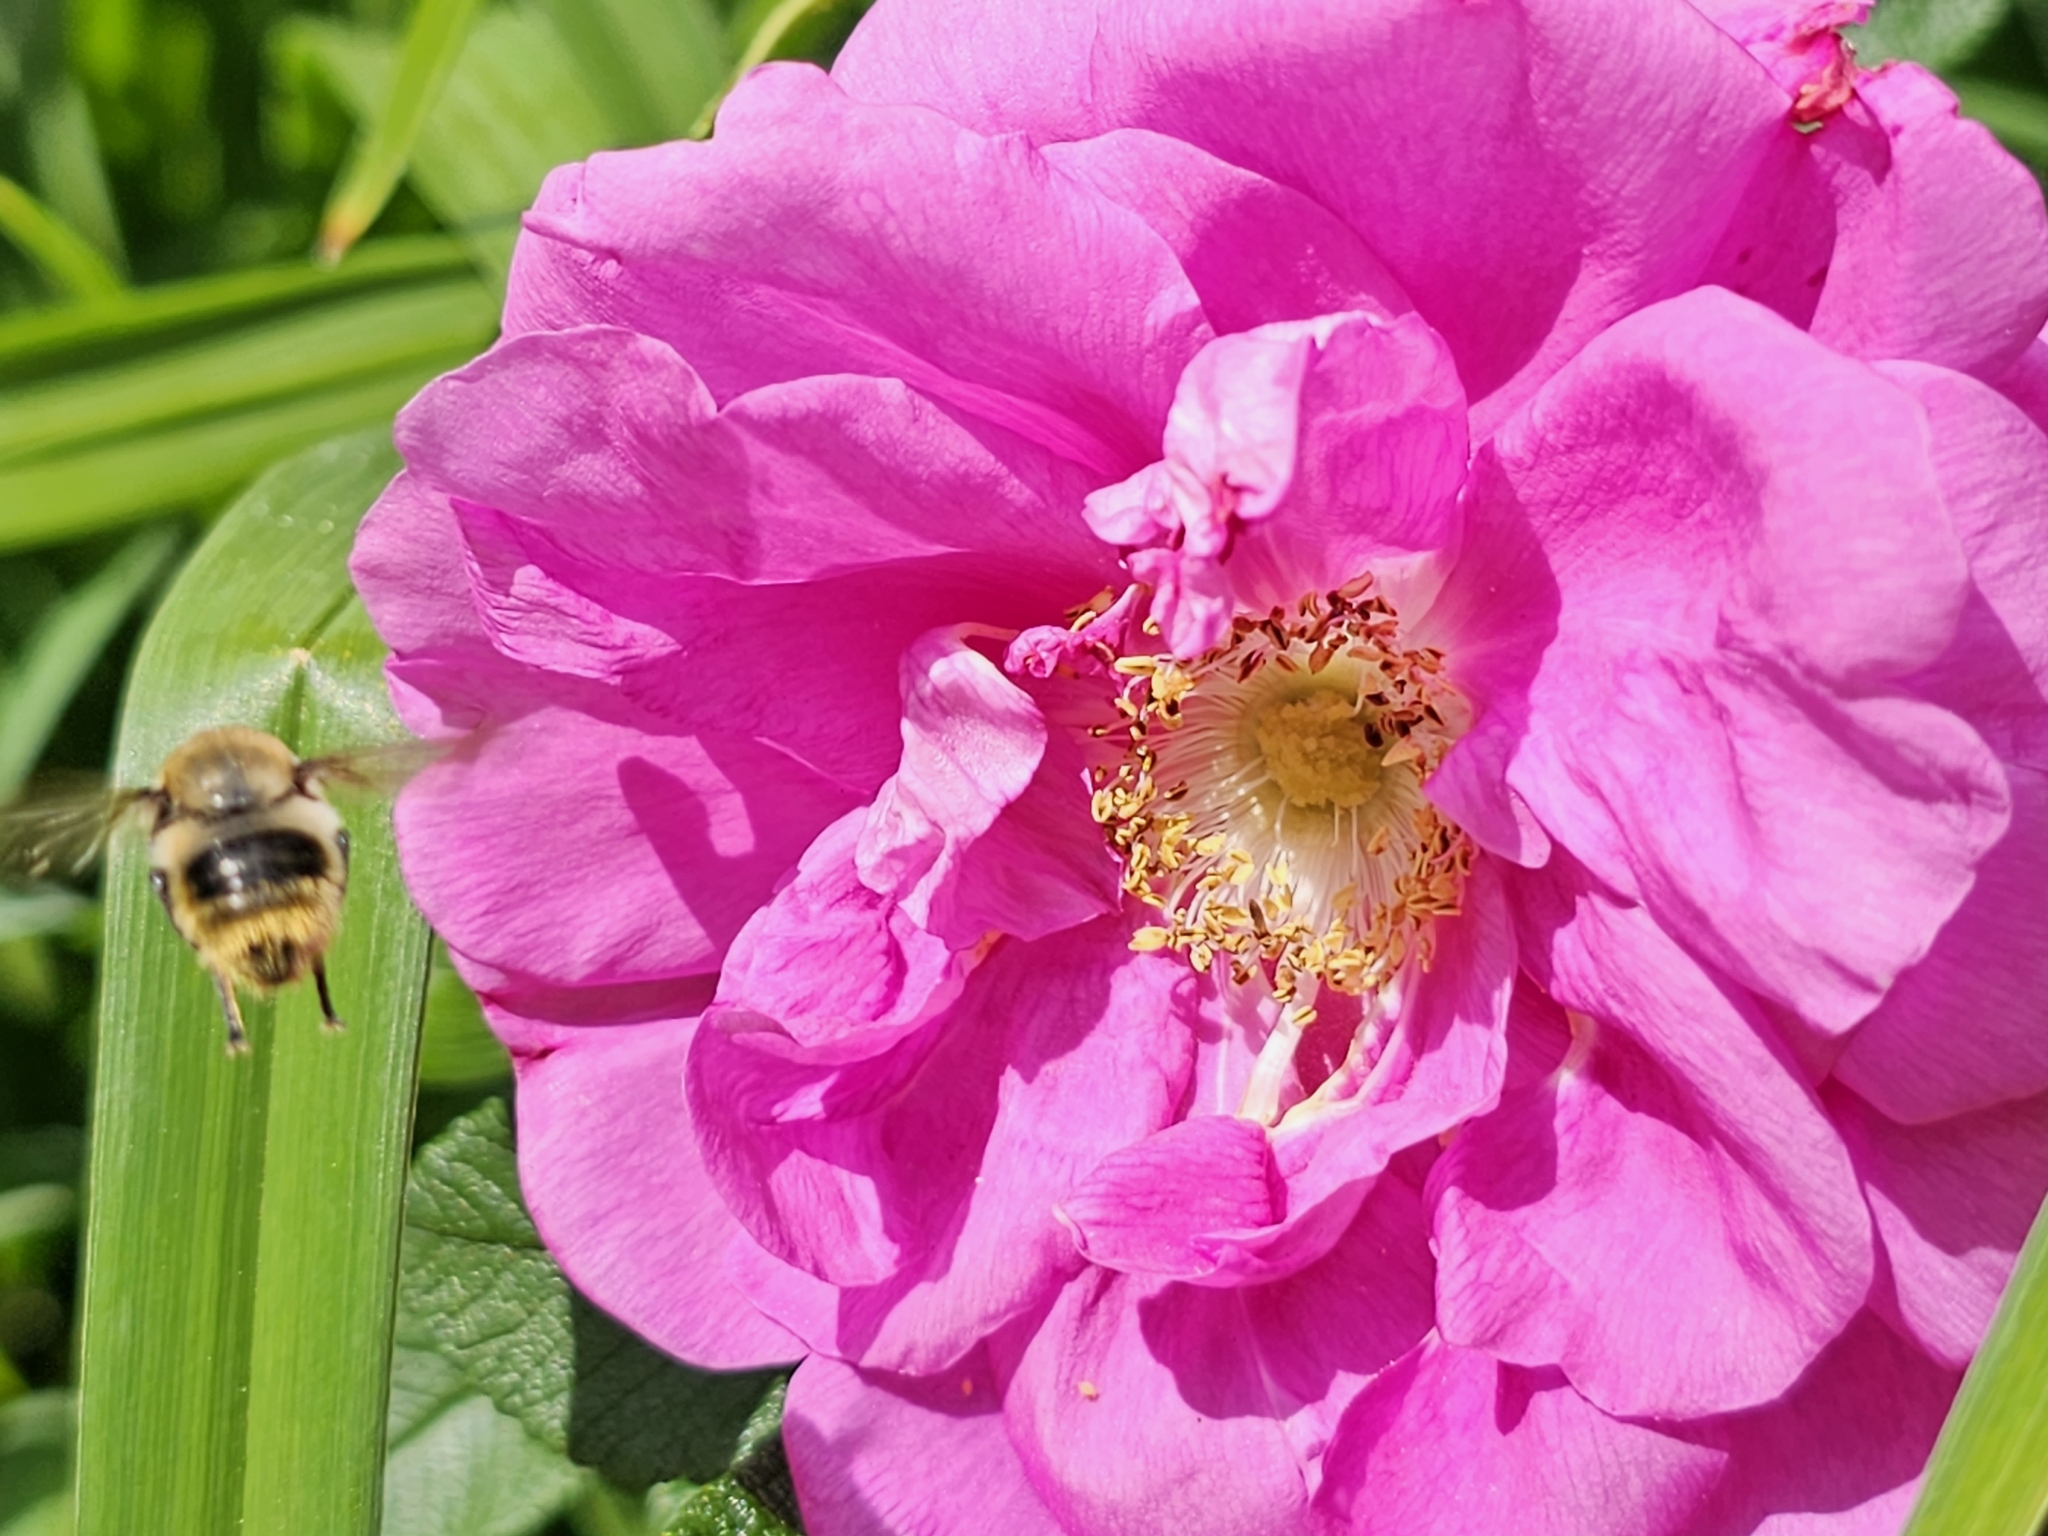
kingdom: Animalia
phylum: Arthropoda
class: Insecta
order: Diptera
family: Syrphidae
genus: Merodon
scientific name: Merodon equestris
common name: Greater bulb-fly
